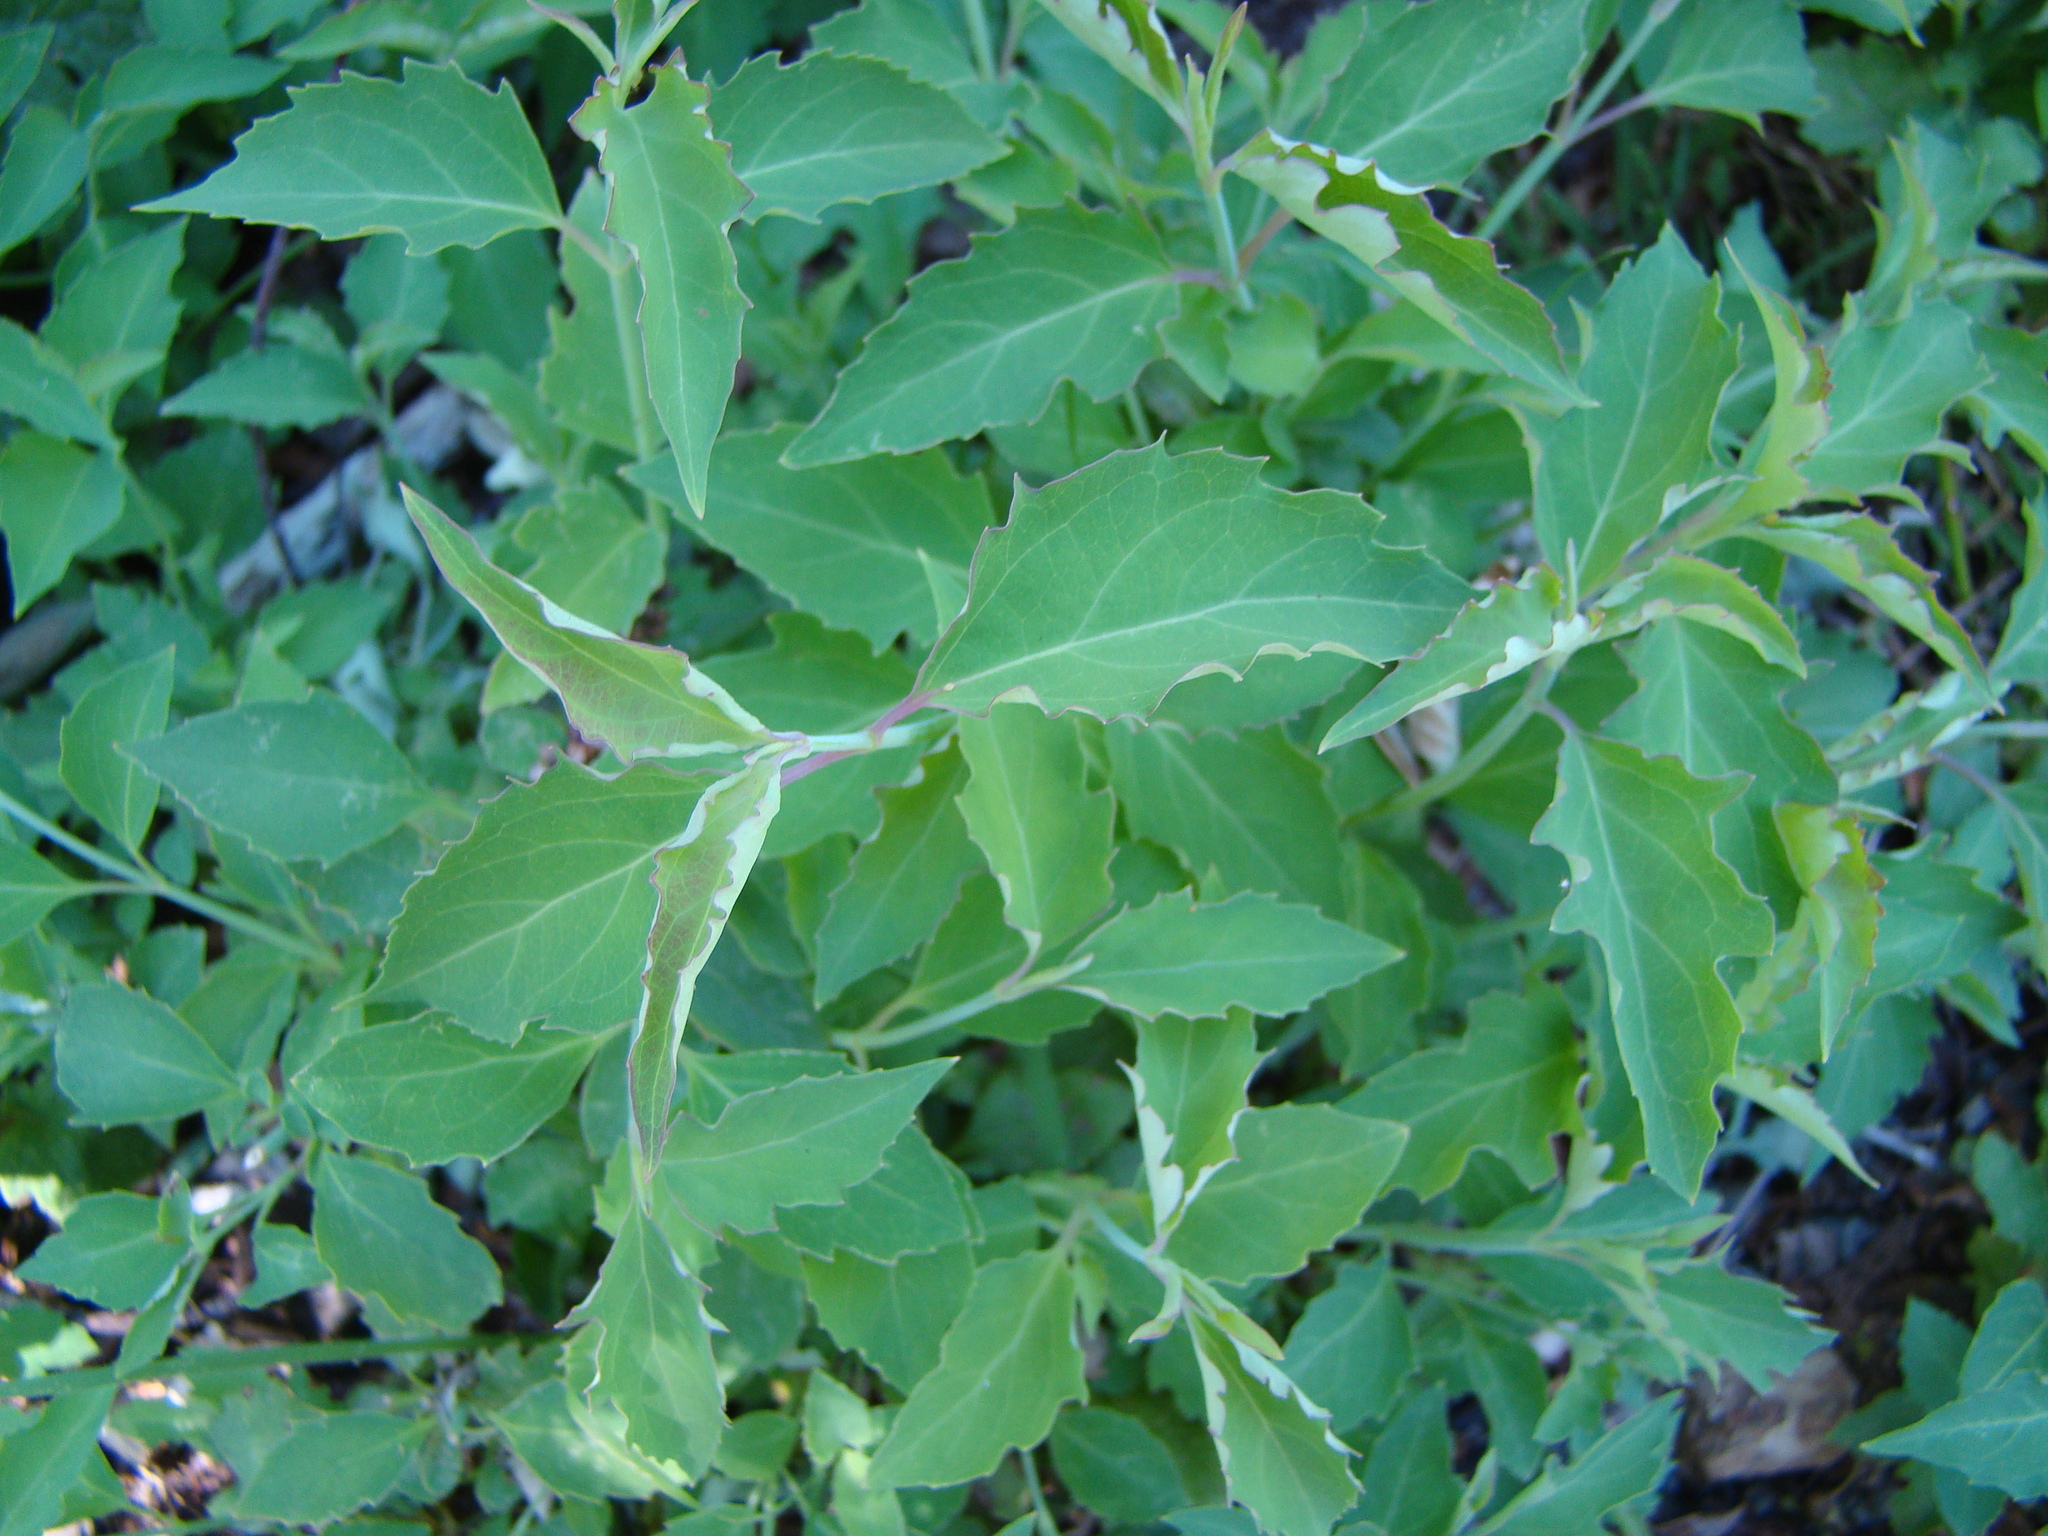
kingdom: Plantae
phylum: Tracheophyta
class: Magnoliopsida
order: Dipsacales
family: Caprifoliaceae
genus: Leycesteria
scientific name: Leycesteria formosa
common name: Himalayan honeysuckle
